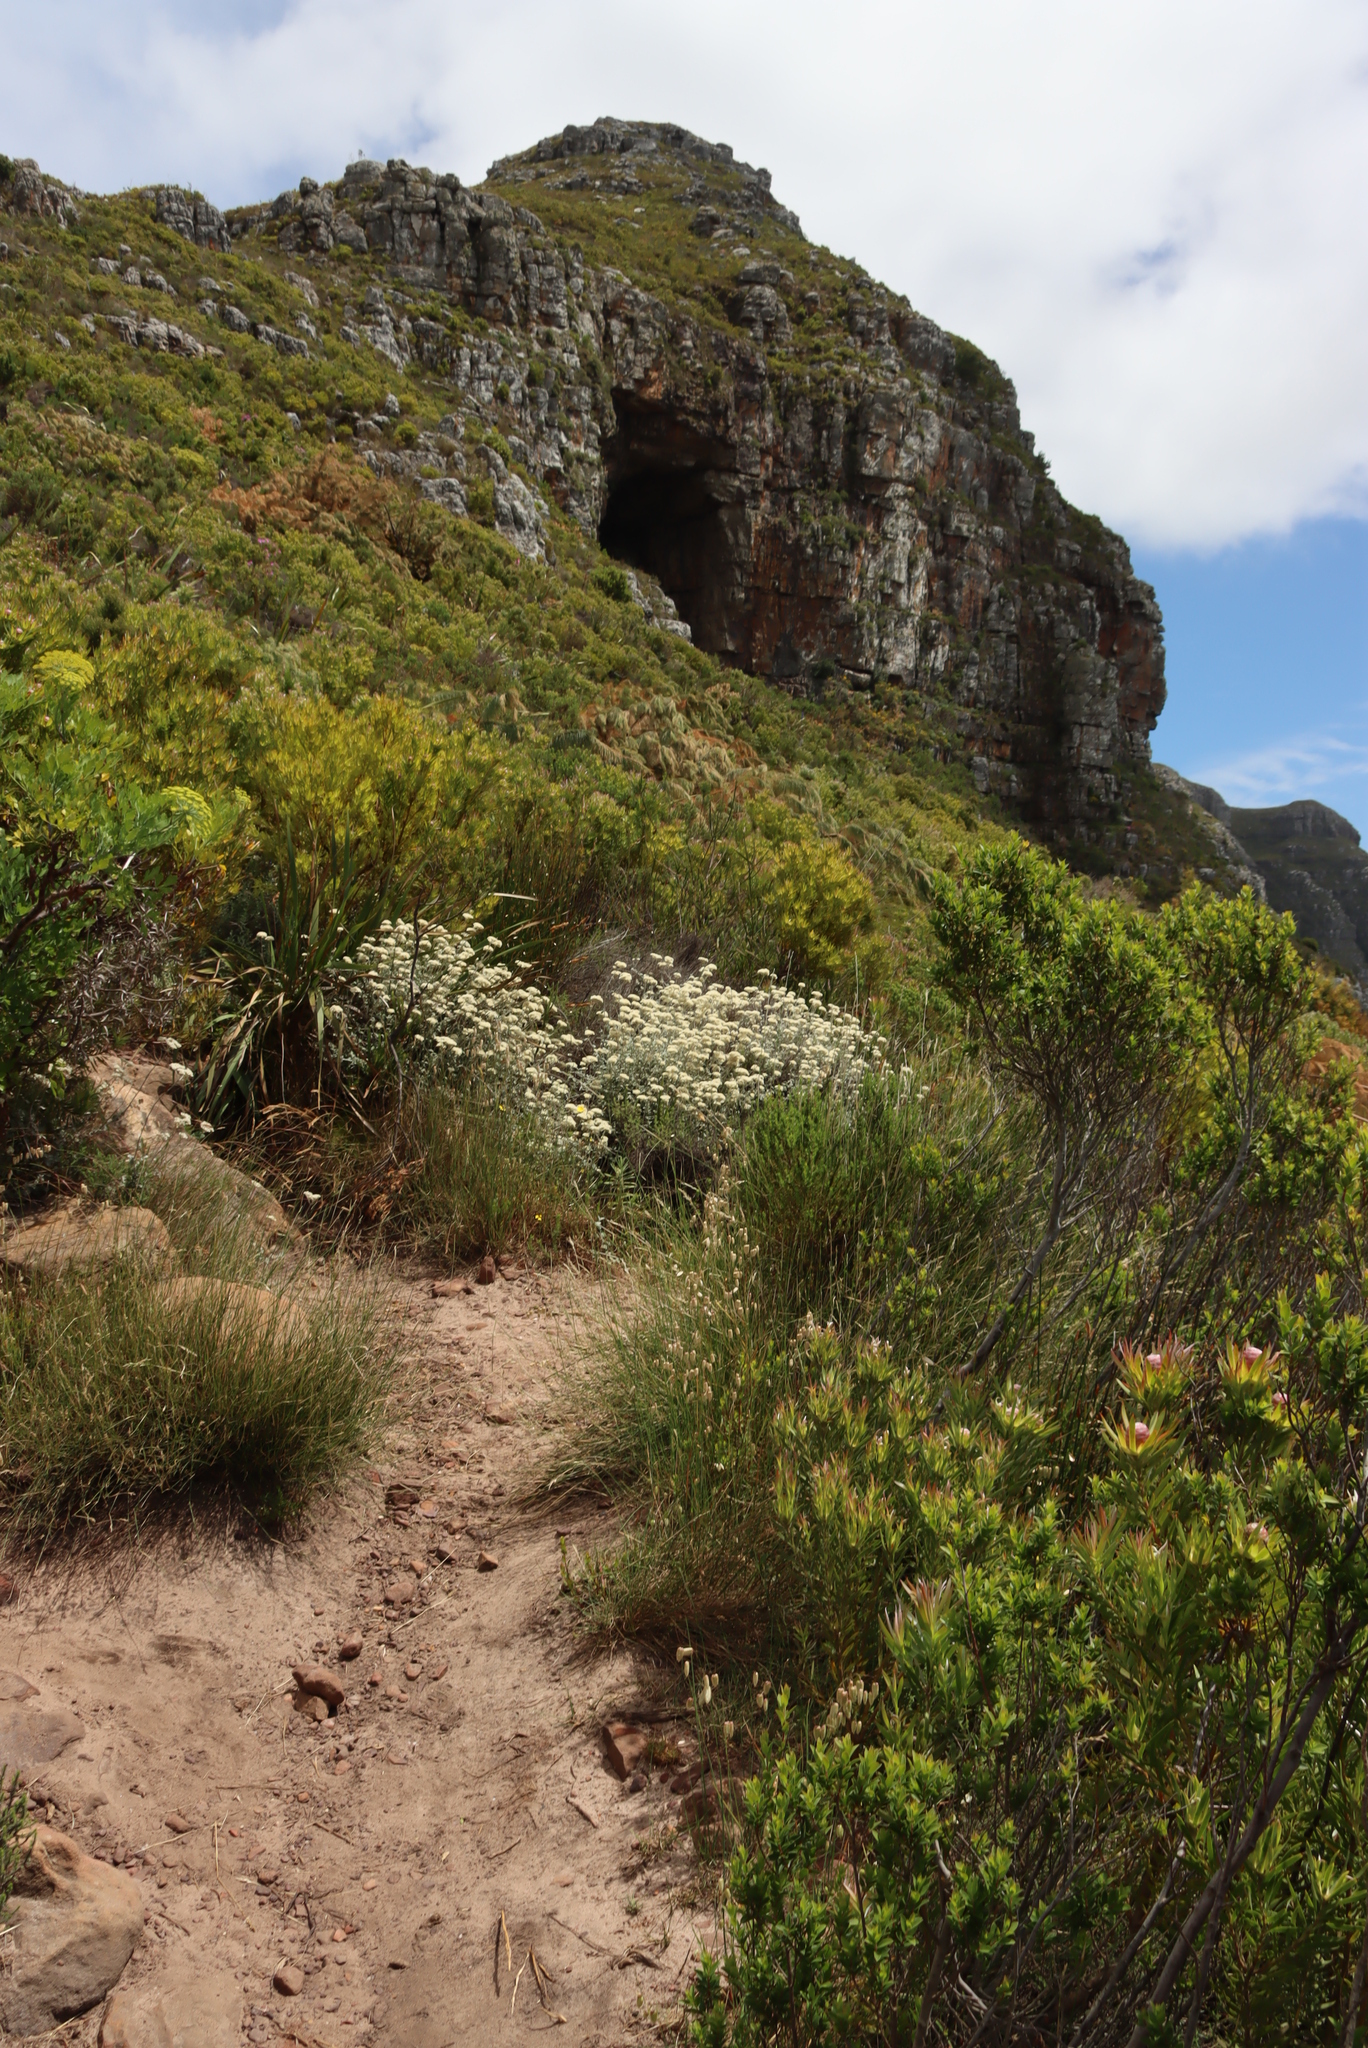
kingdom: Plantae
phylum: Tracheophyta
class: Magnoliopsida
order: Asterales
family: Asteraceae
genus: Helichrysum
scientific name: Helichrysum pandurifolium
